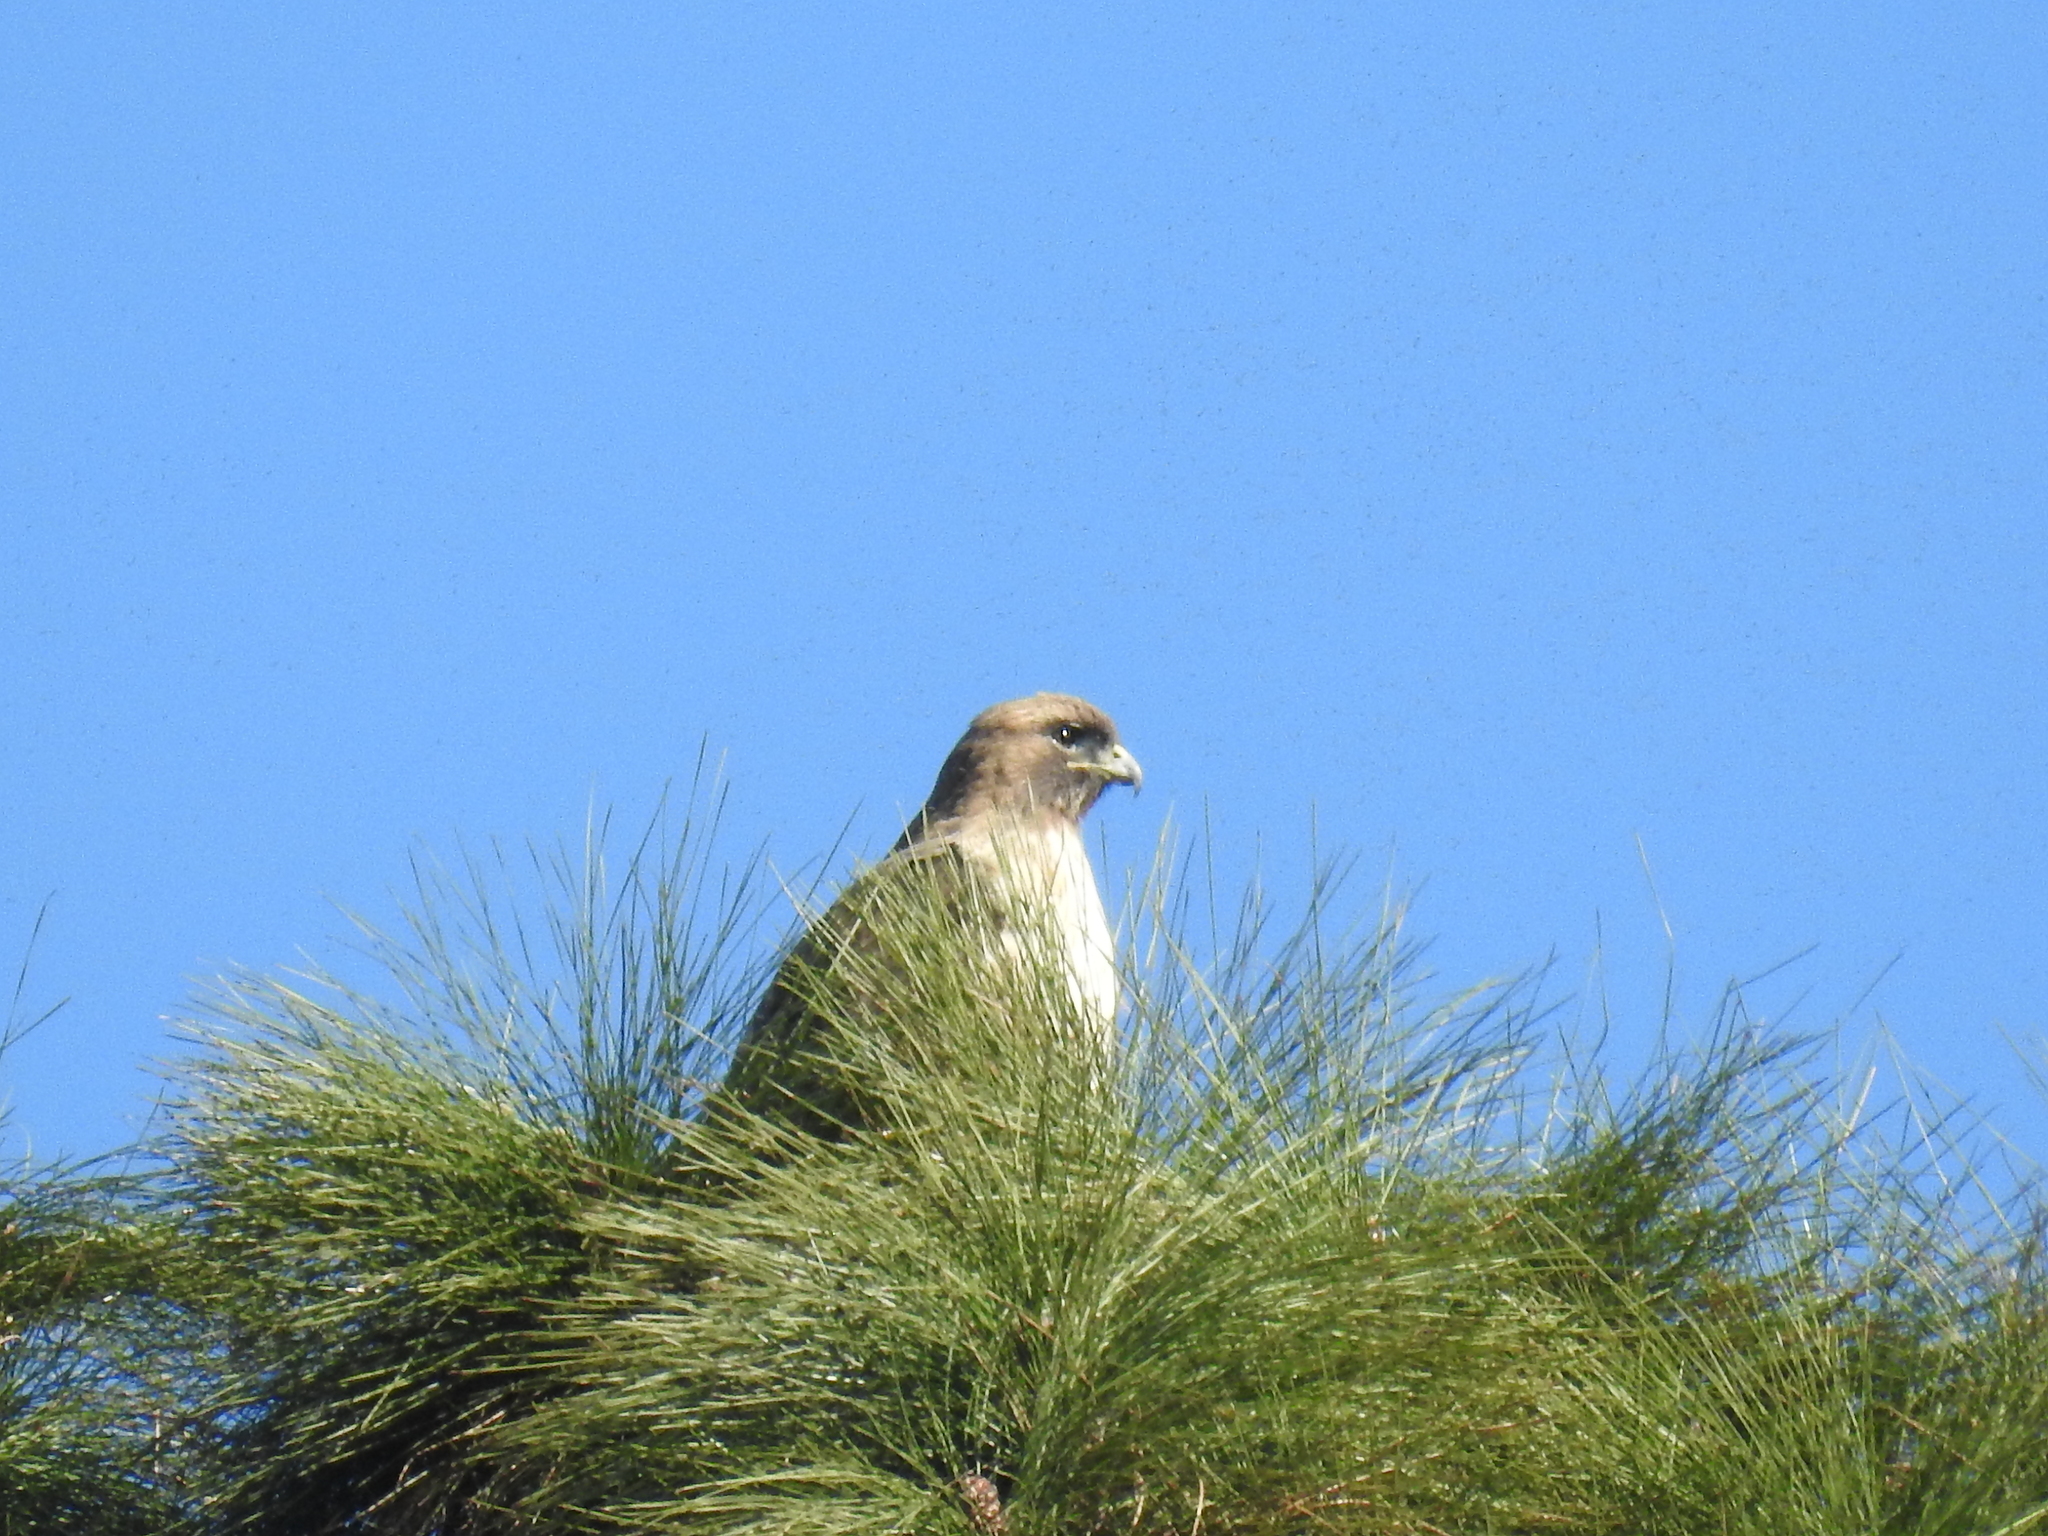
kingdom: Animalia
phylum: Chordata
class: Aves
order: Accipitriformes
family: Accipitridae
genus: Buteo
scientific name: Buteo jamaicensis
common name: Red-tailed hawk
